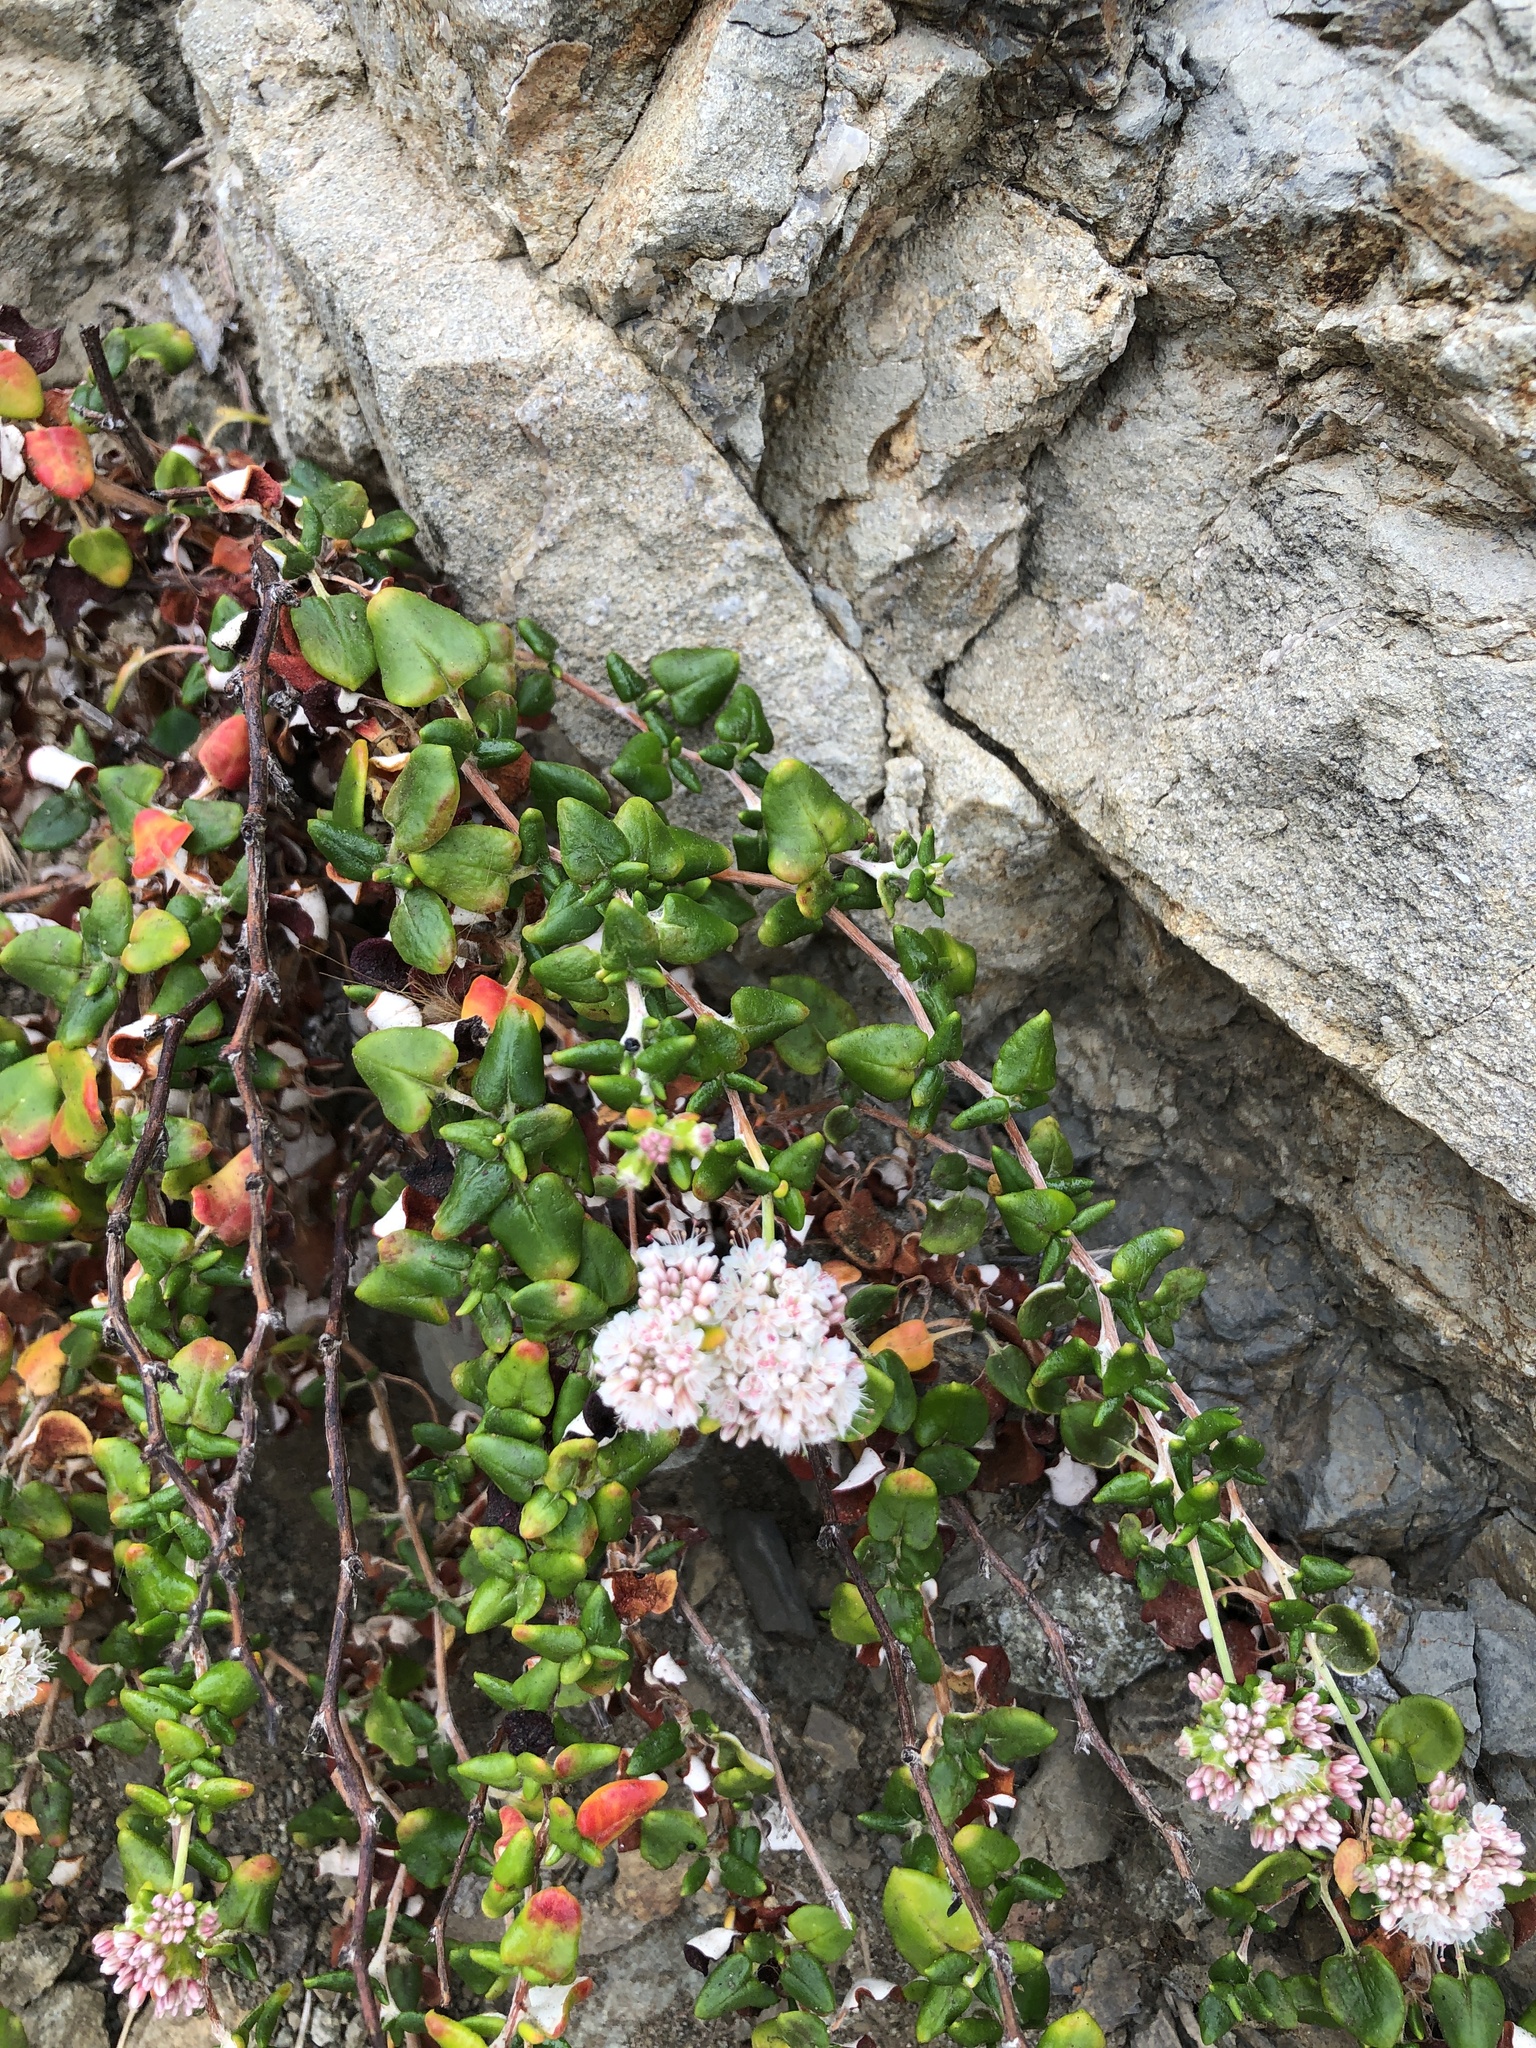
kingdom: Plantae
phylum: Tracheophyta
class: Magnoliopsida
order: Caryophyllales
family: Polygonaceae
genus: Eriogonum
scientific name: Eriogonum parvifolium
